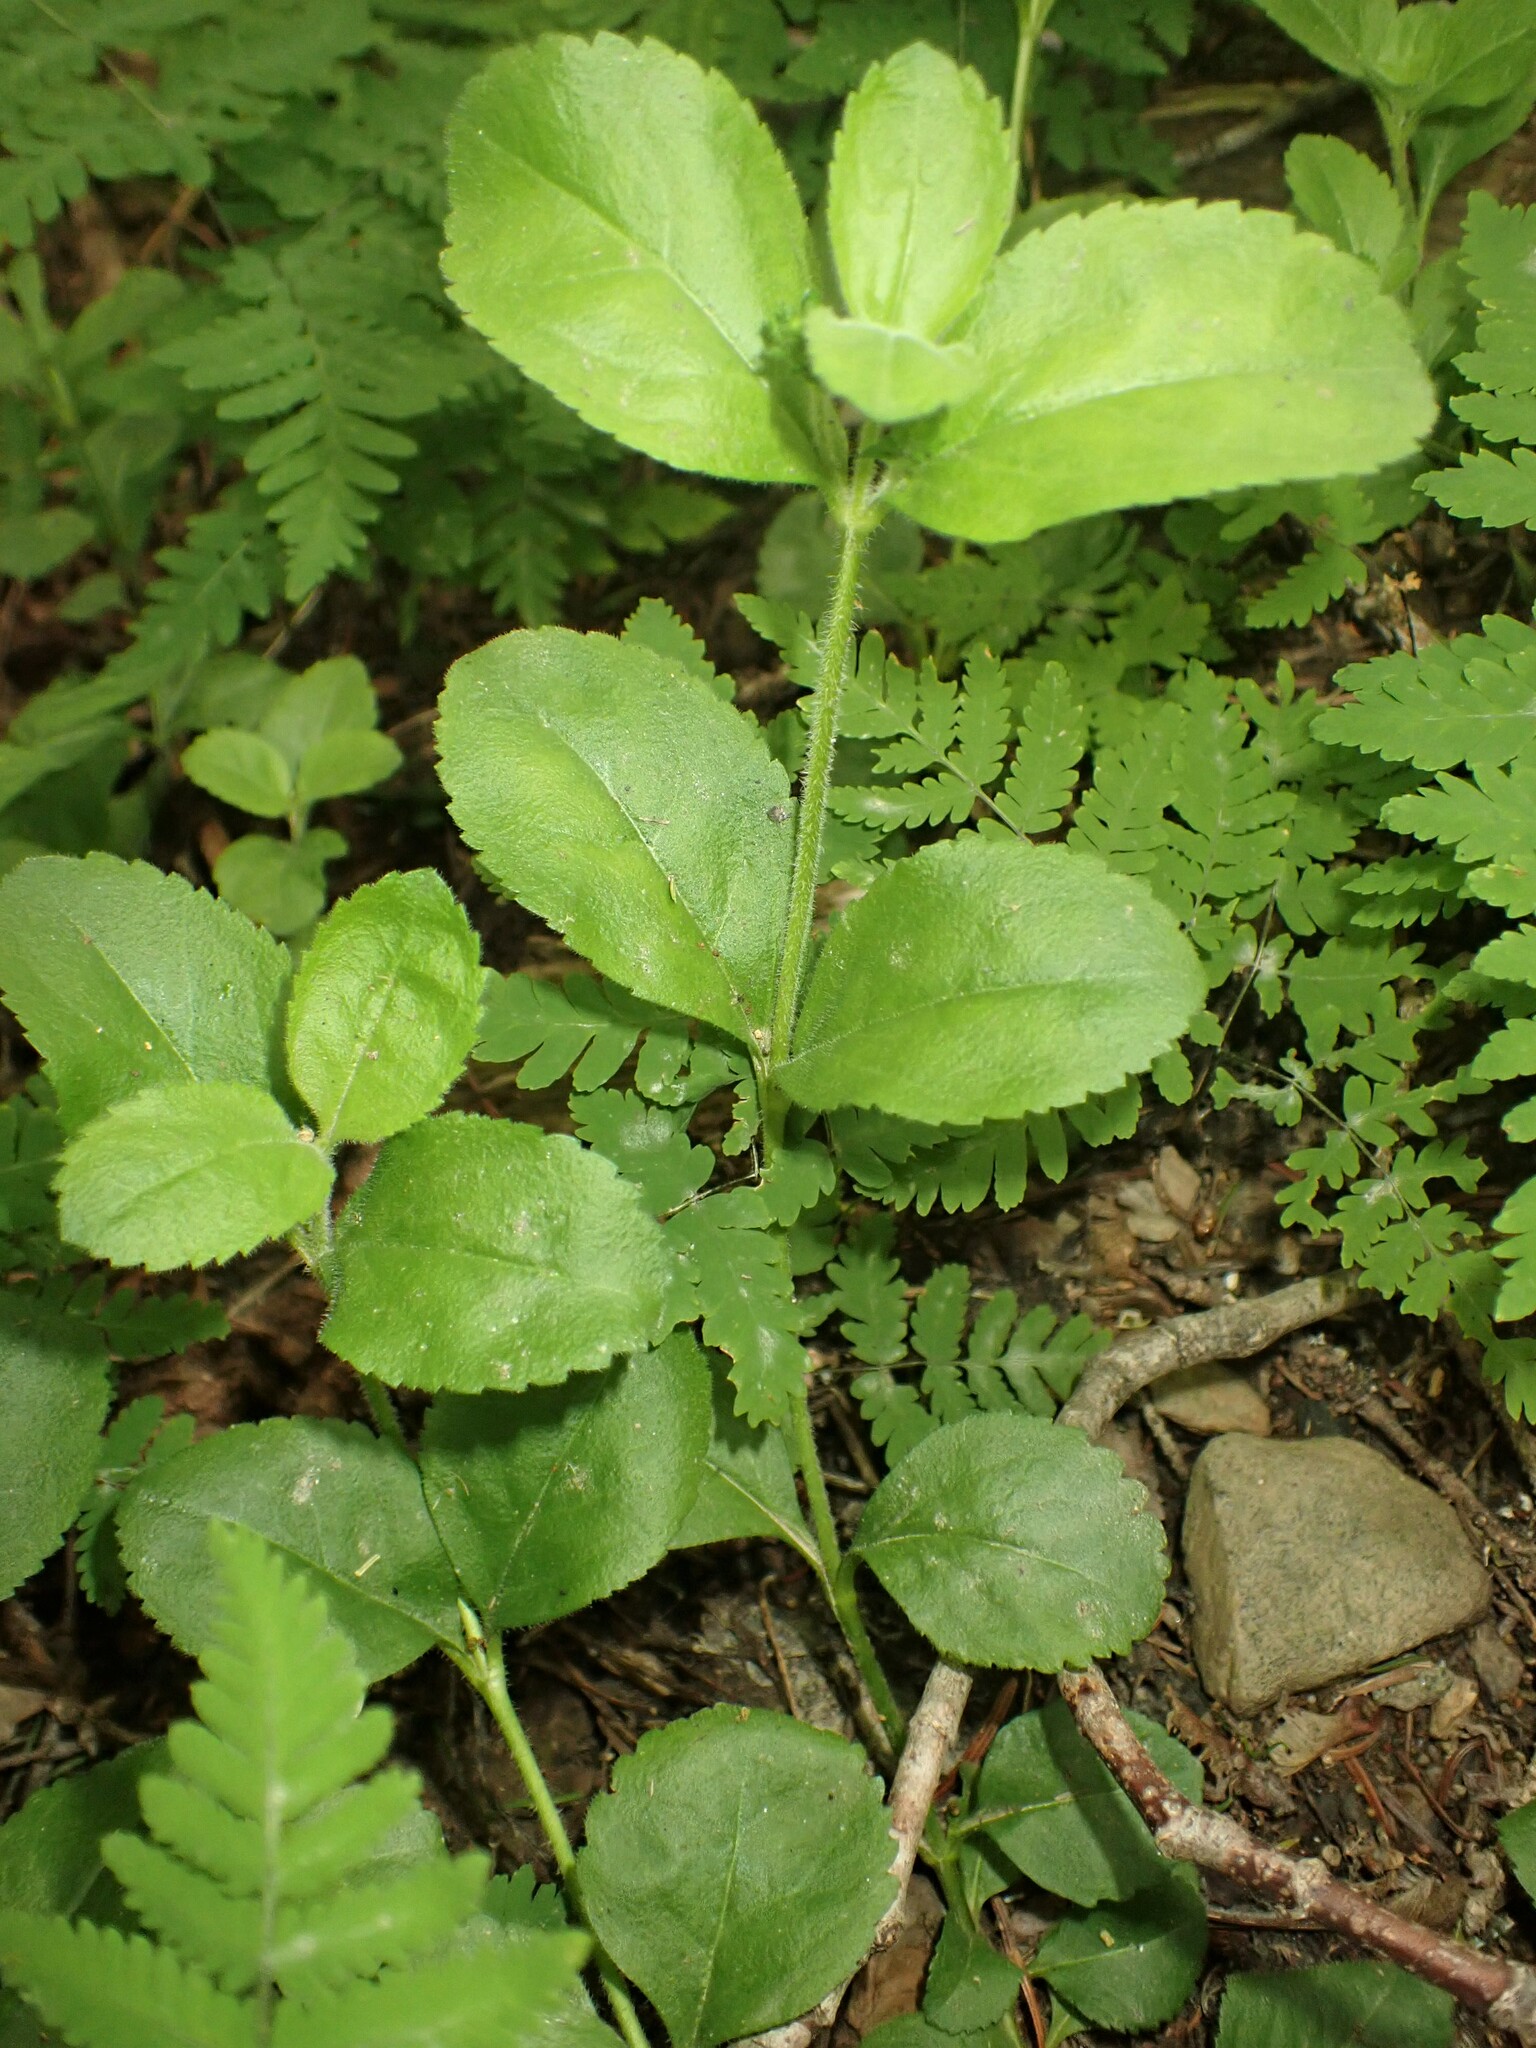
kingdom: Plantae
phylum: Tracheophyta
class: Magnoliopsida
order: Lamiales
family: Plantaginaceae
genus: Veronica
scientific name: Veronica officinalis
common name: Common speedwell
